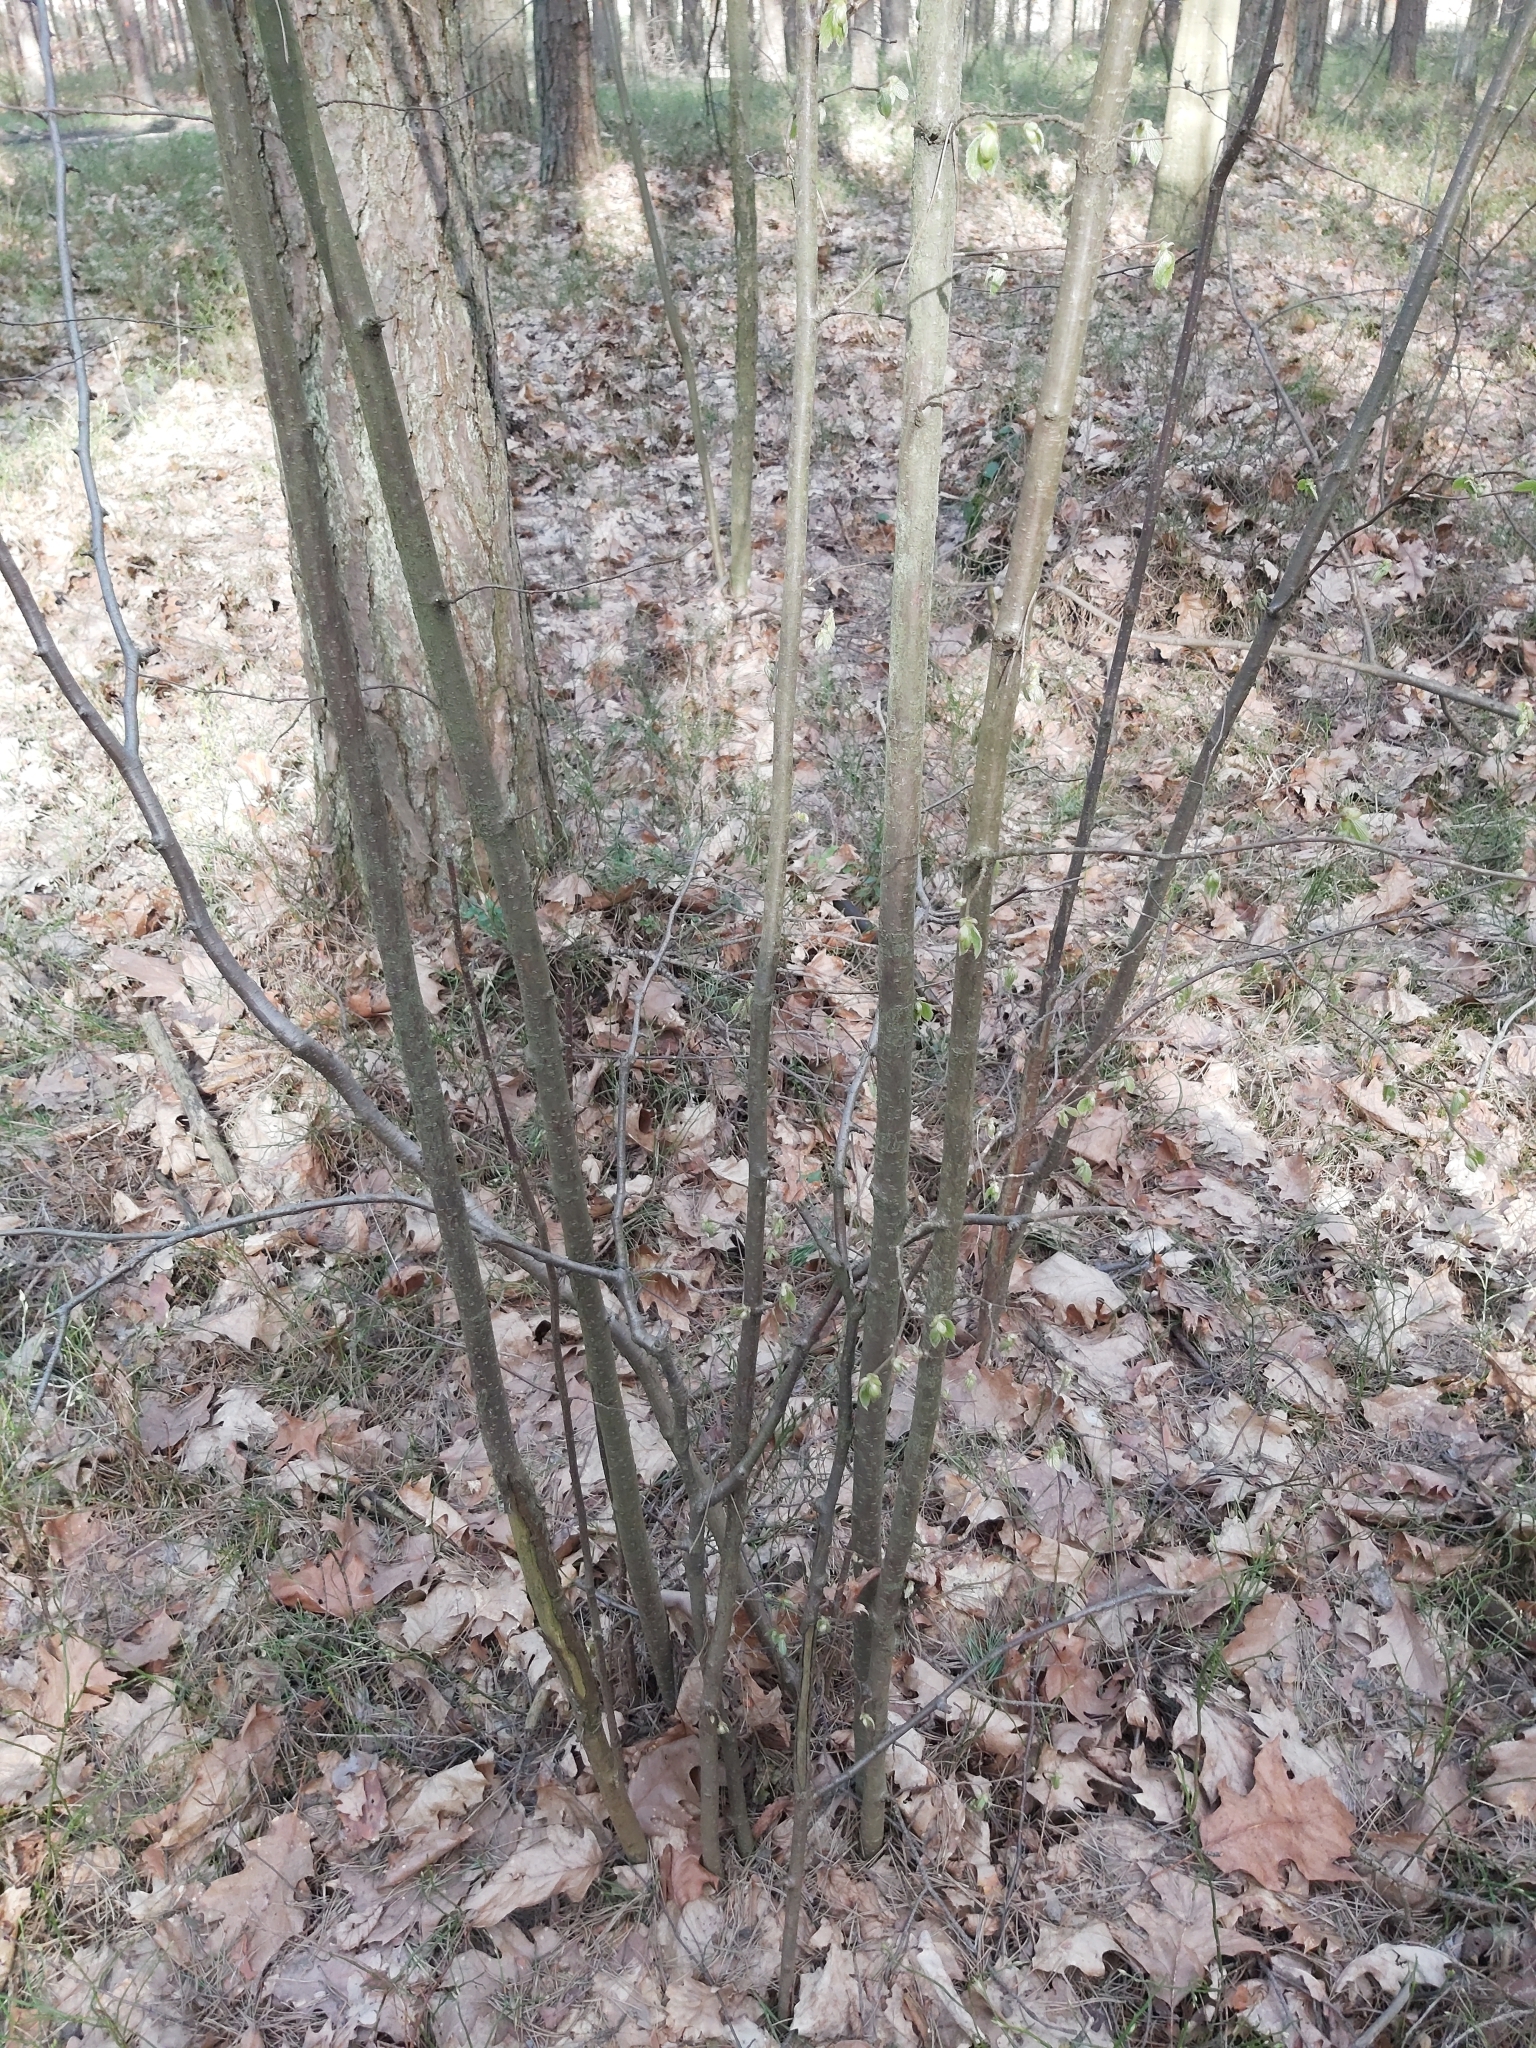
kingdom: Plantae
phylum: Tracheophyta
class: Magnoliopsida
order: Fagales
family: Betulaceae
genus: Corylus
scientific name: Corylus avellana
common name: European hazel
